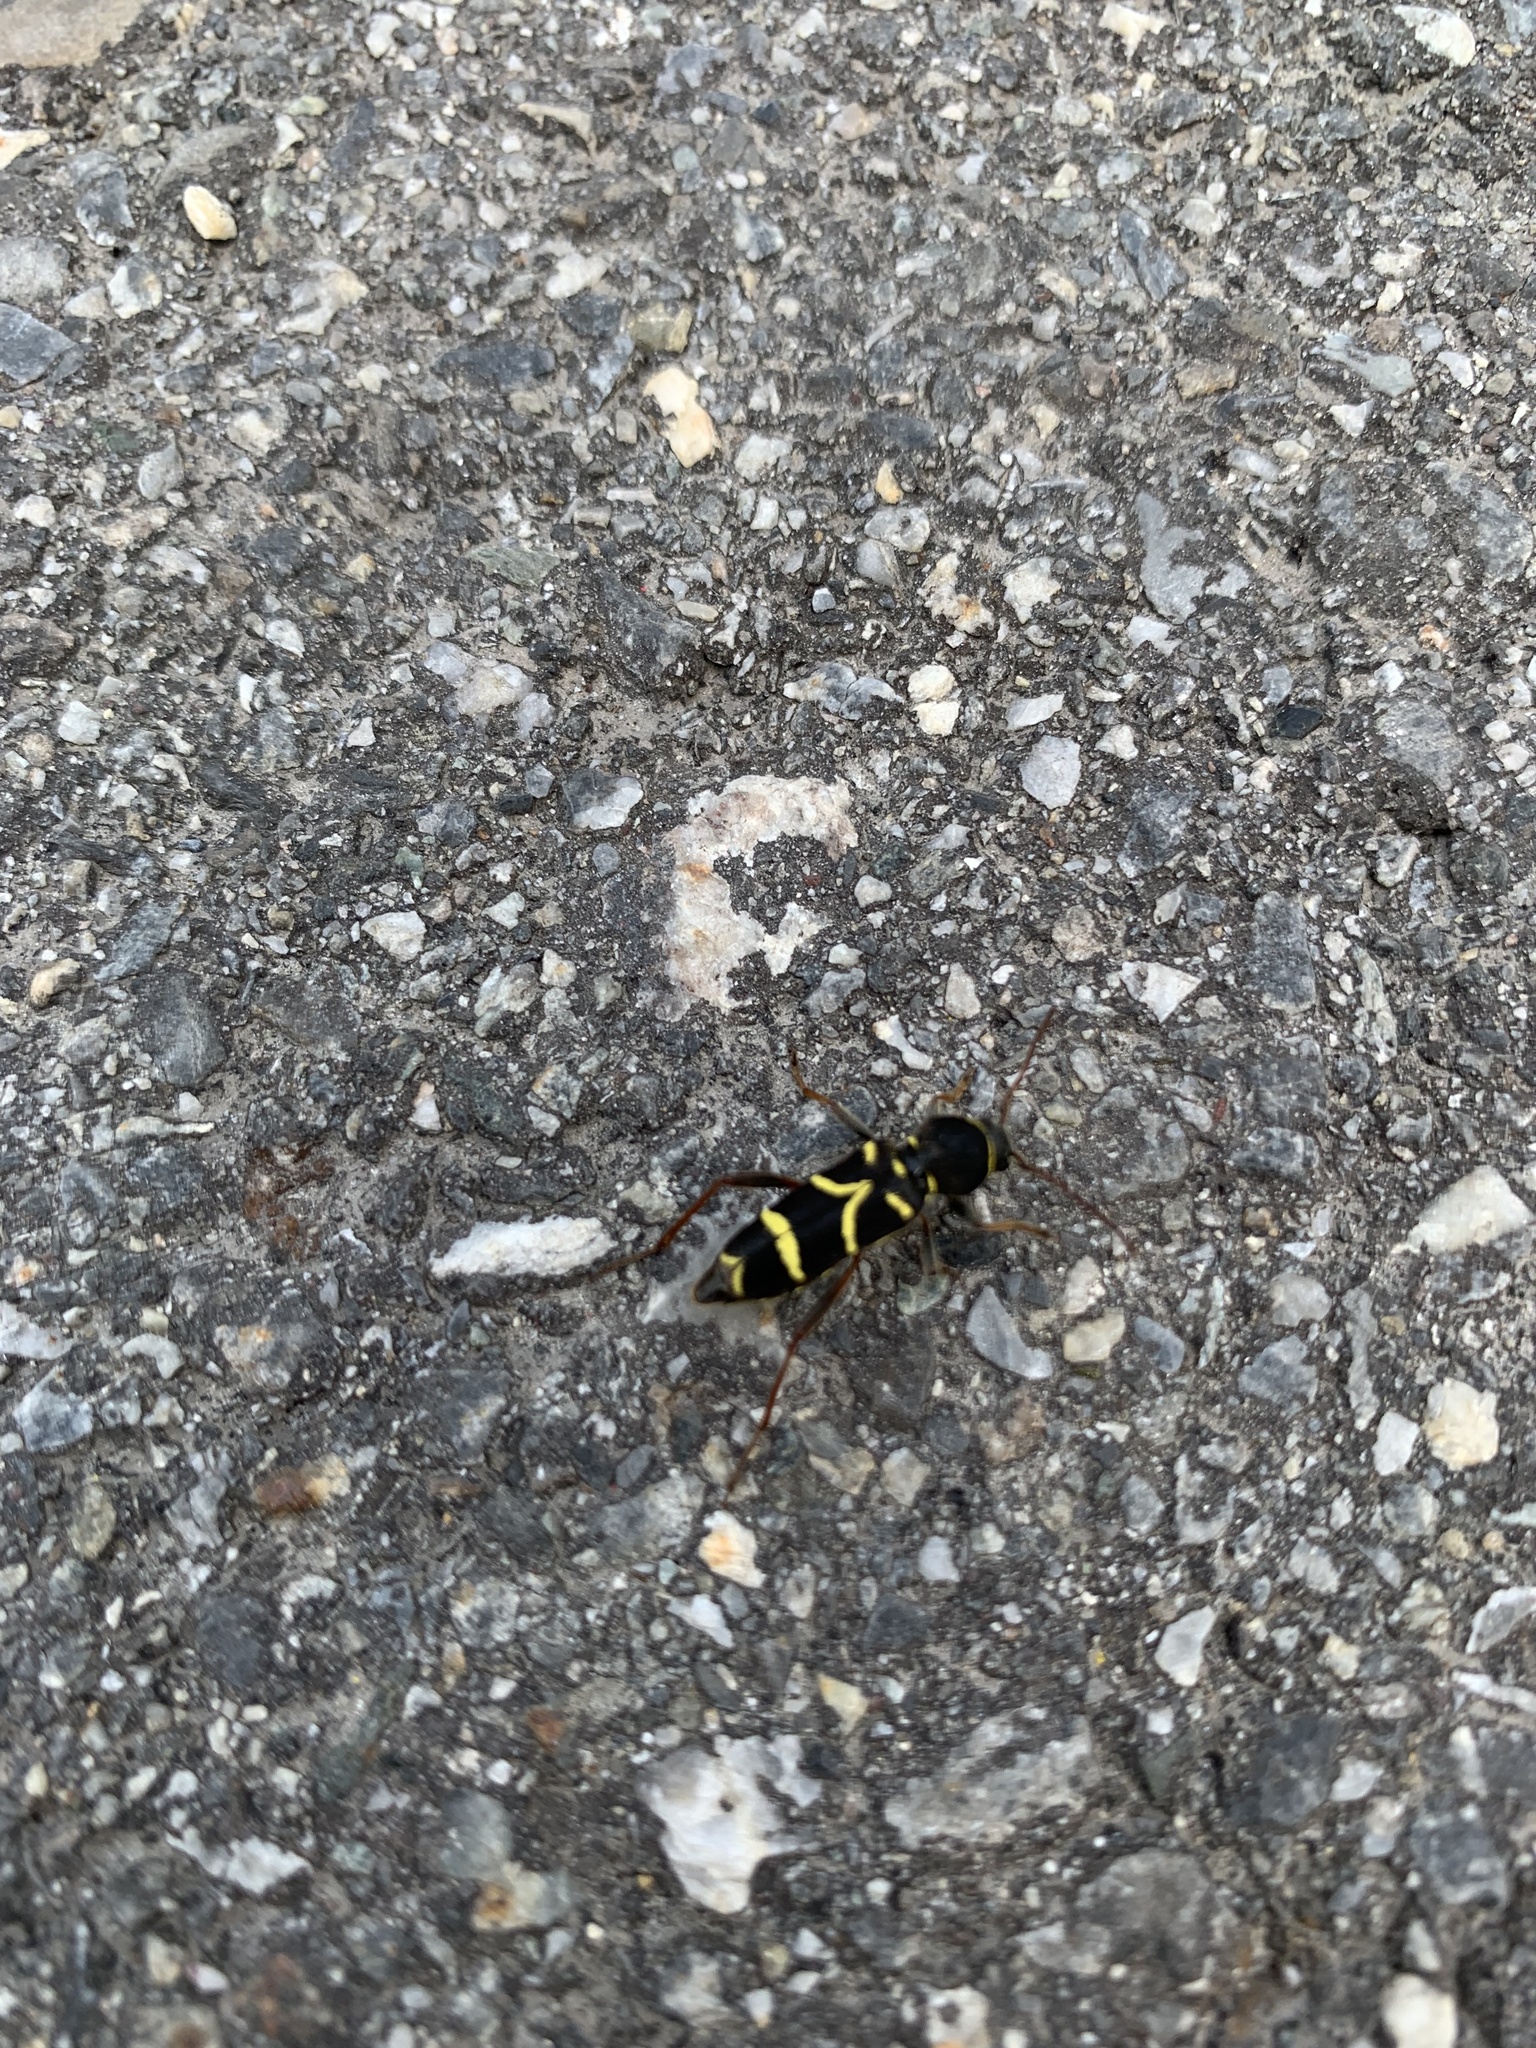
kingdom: Animalia
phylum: Arthropoda
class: Insecta
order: Coleoptera
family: Cerambycidae
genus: Clytus
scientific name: Clytus lama
